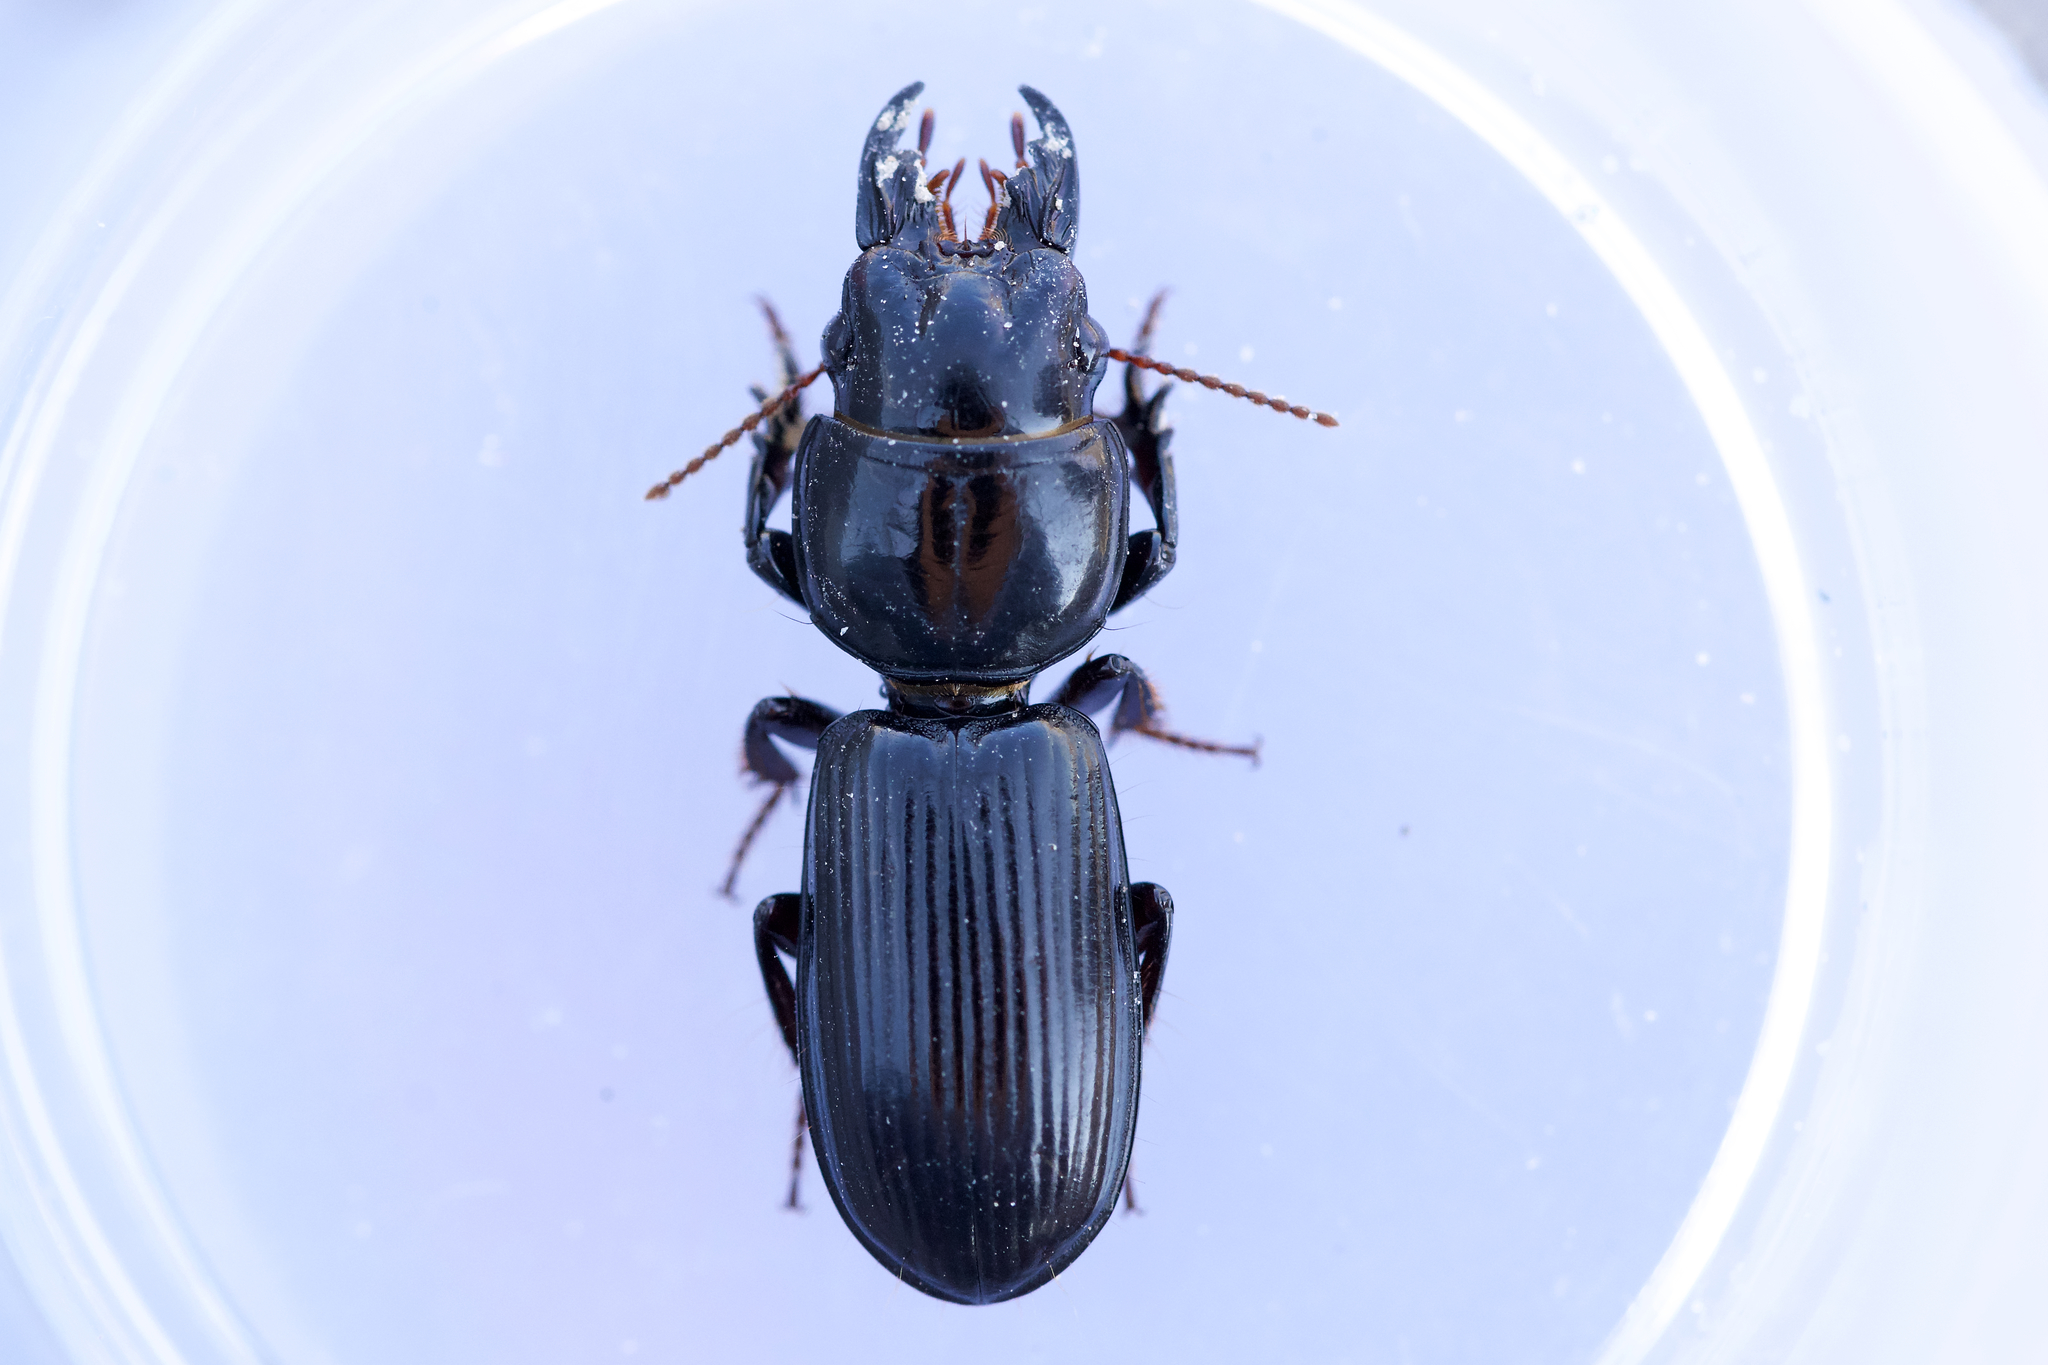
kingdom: Animalia
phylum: Arthropoda
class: Insecta
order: Coleoptera
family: Carabidae
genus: Scarites
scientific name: Scarites subterraneus
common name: Big-headed ground beetle
